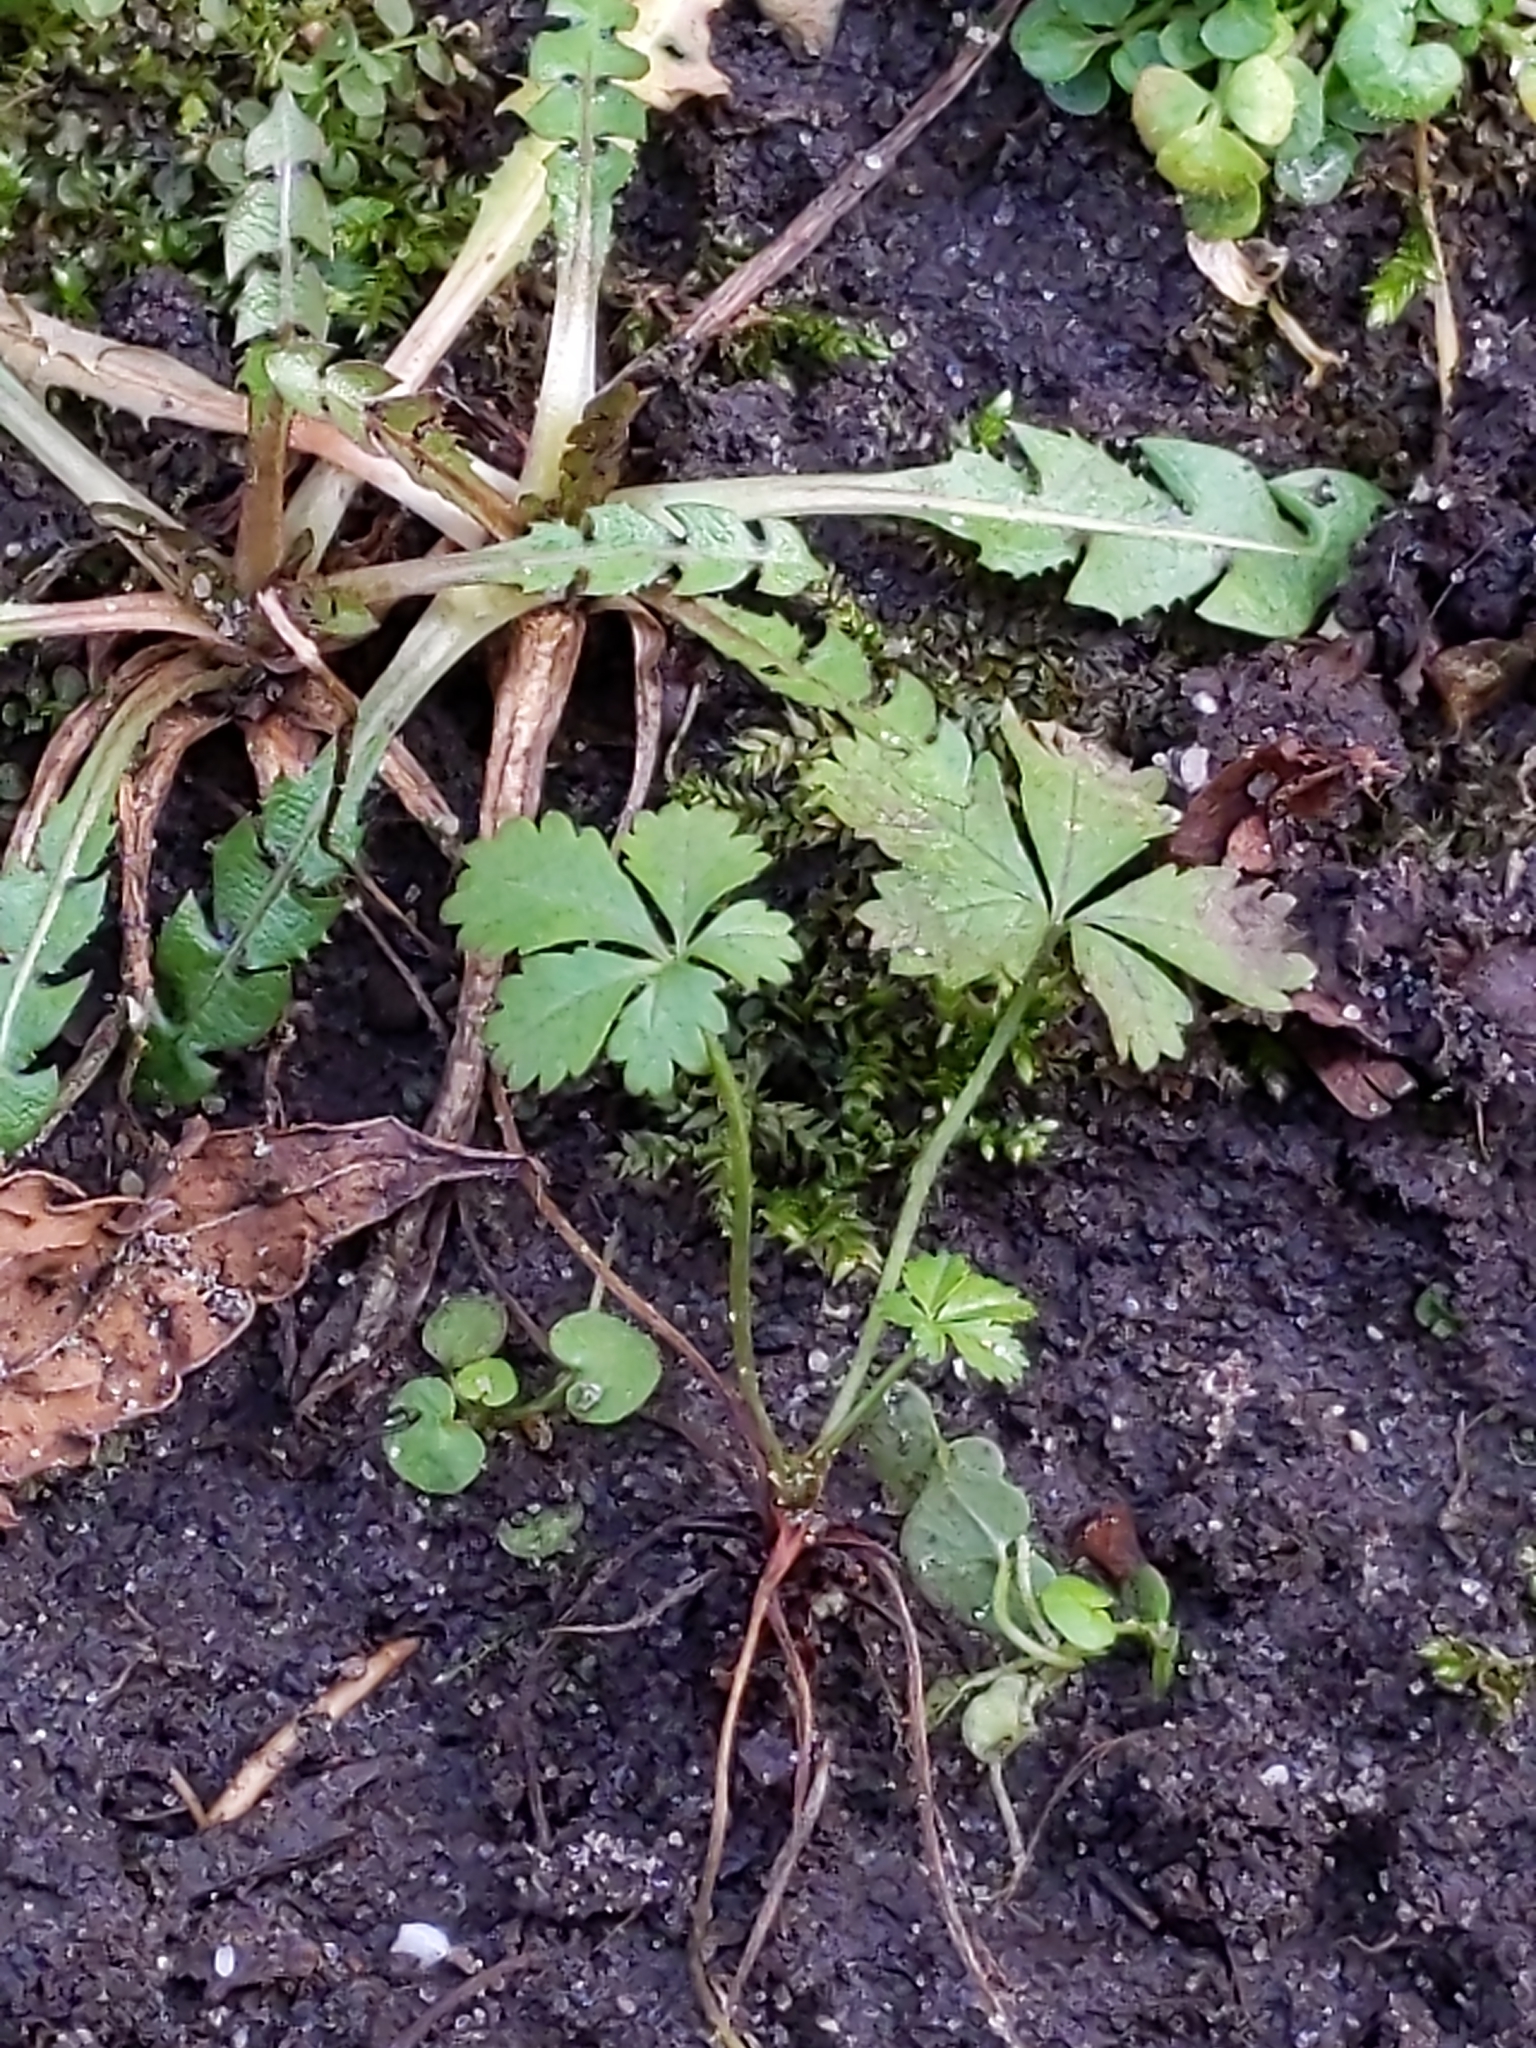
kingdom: Plantae
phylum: Tracheophyta
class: Magnoliopsida
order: Rosales
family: Rosaceae
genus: Potentilla
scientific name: Potentilla reptans
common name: Creeping cinquefoil
